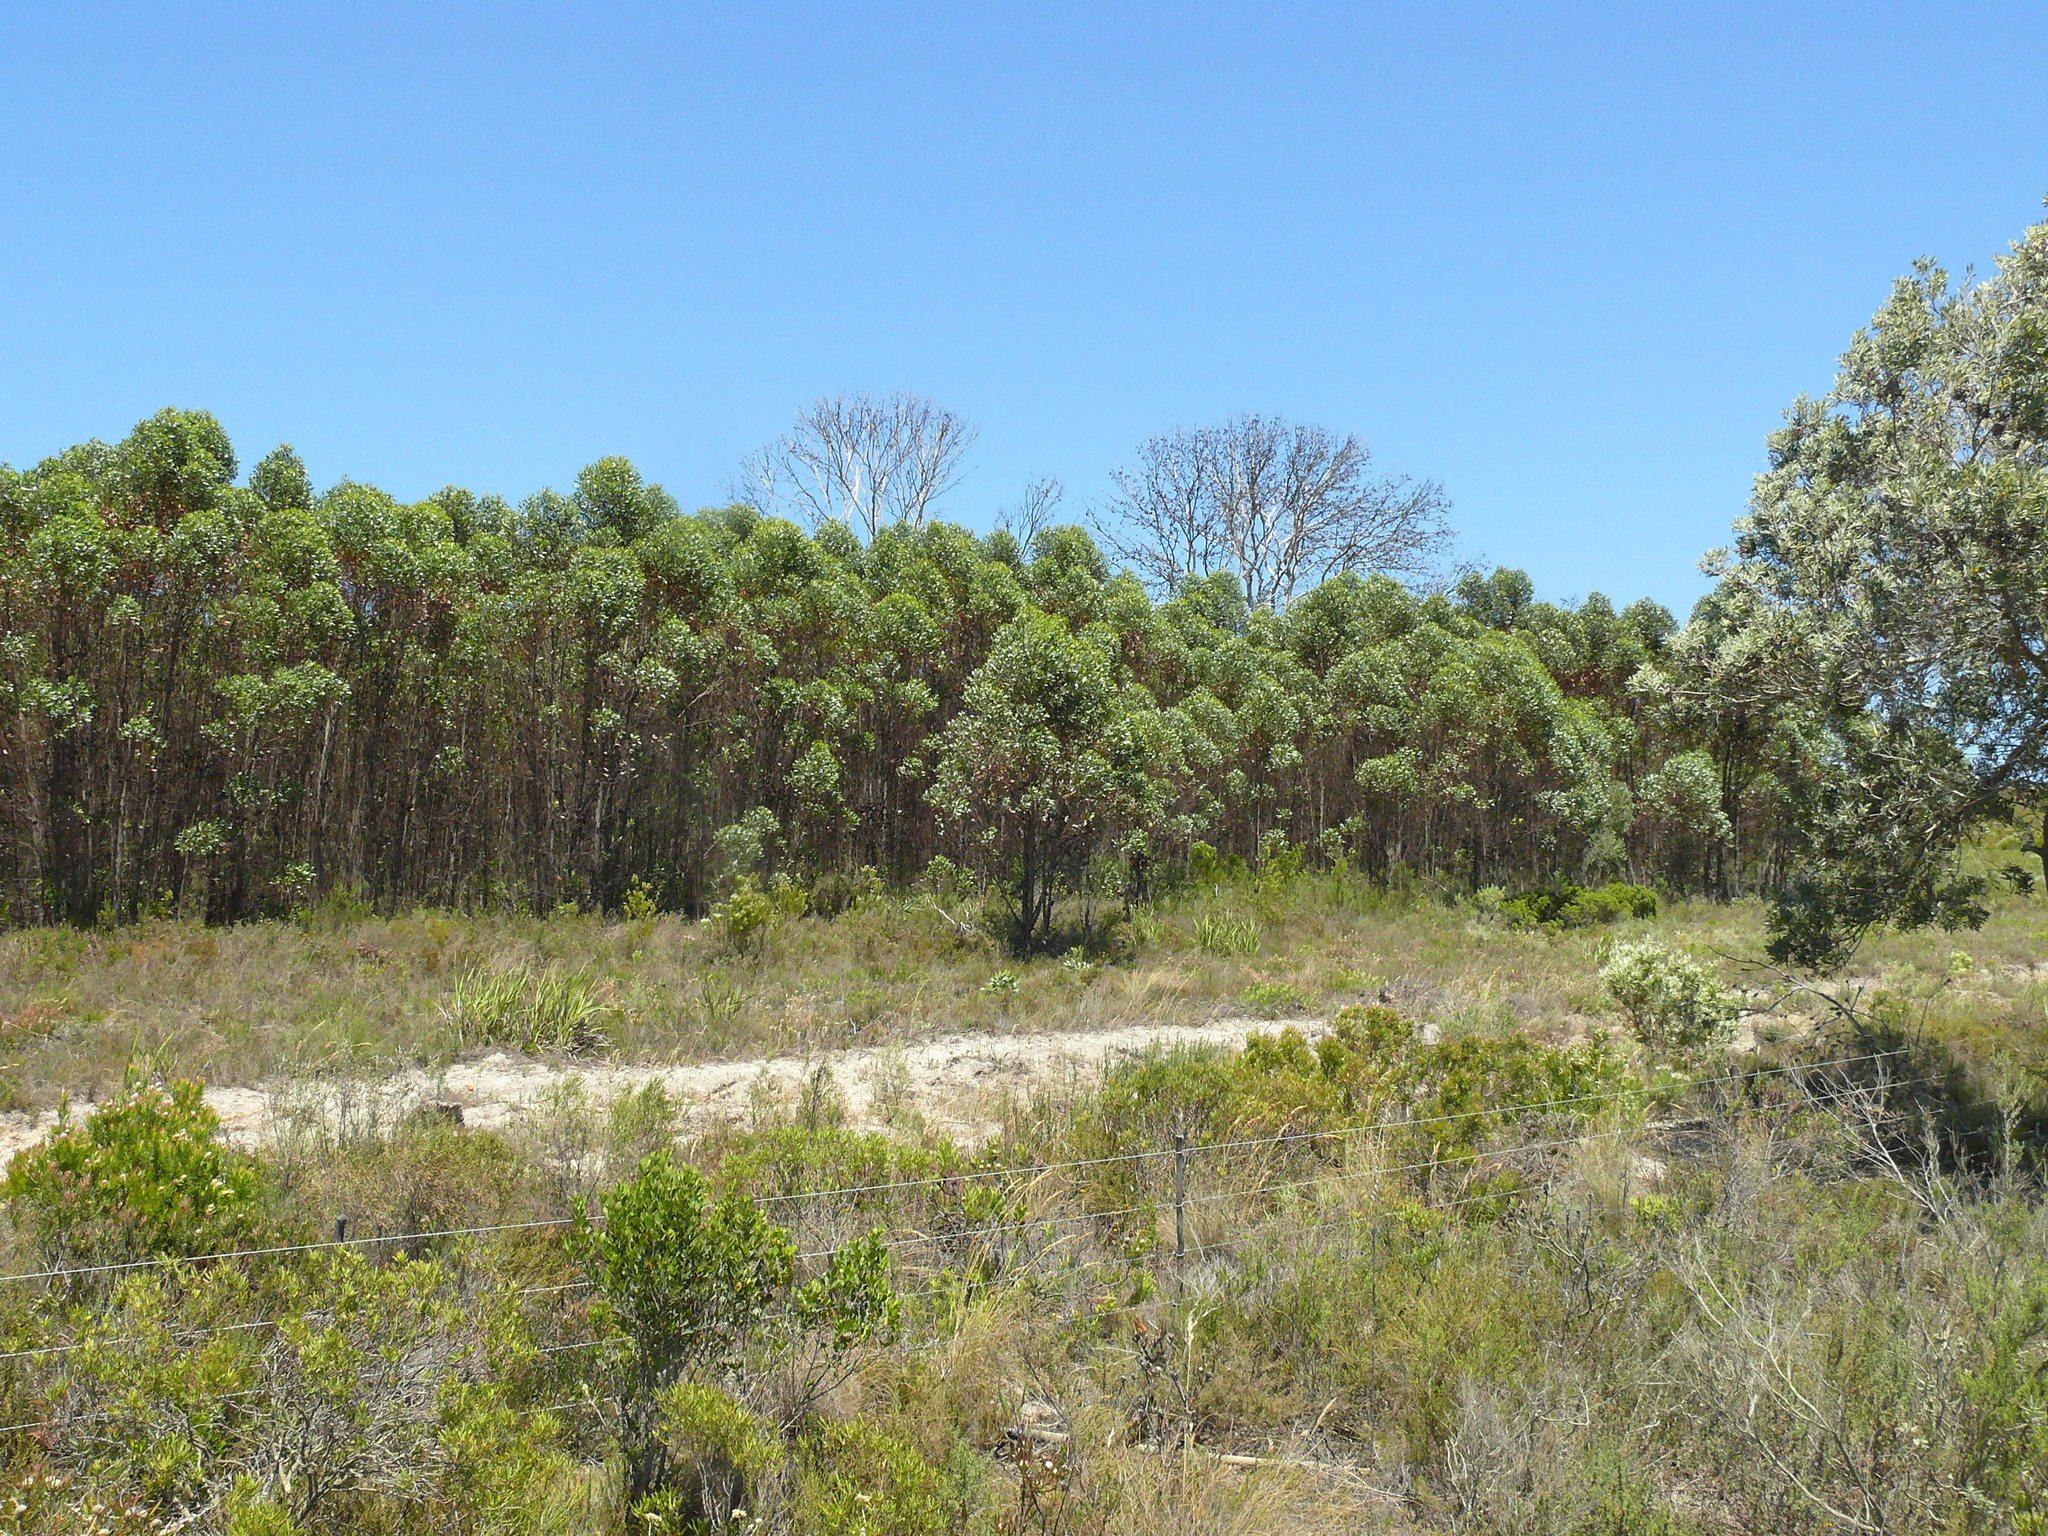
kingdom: Plantae
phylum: Tracheophyta
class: Magnoliopsida
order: Myrtales
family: Myrtaceae
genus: Eucalyptus
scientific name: Eucalyptus conferruminata
